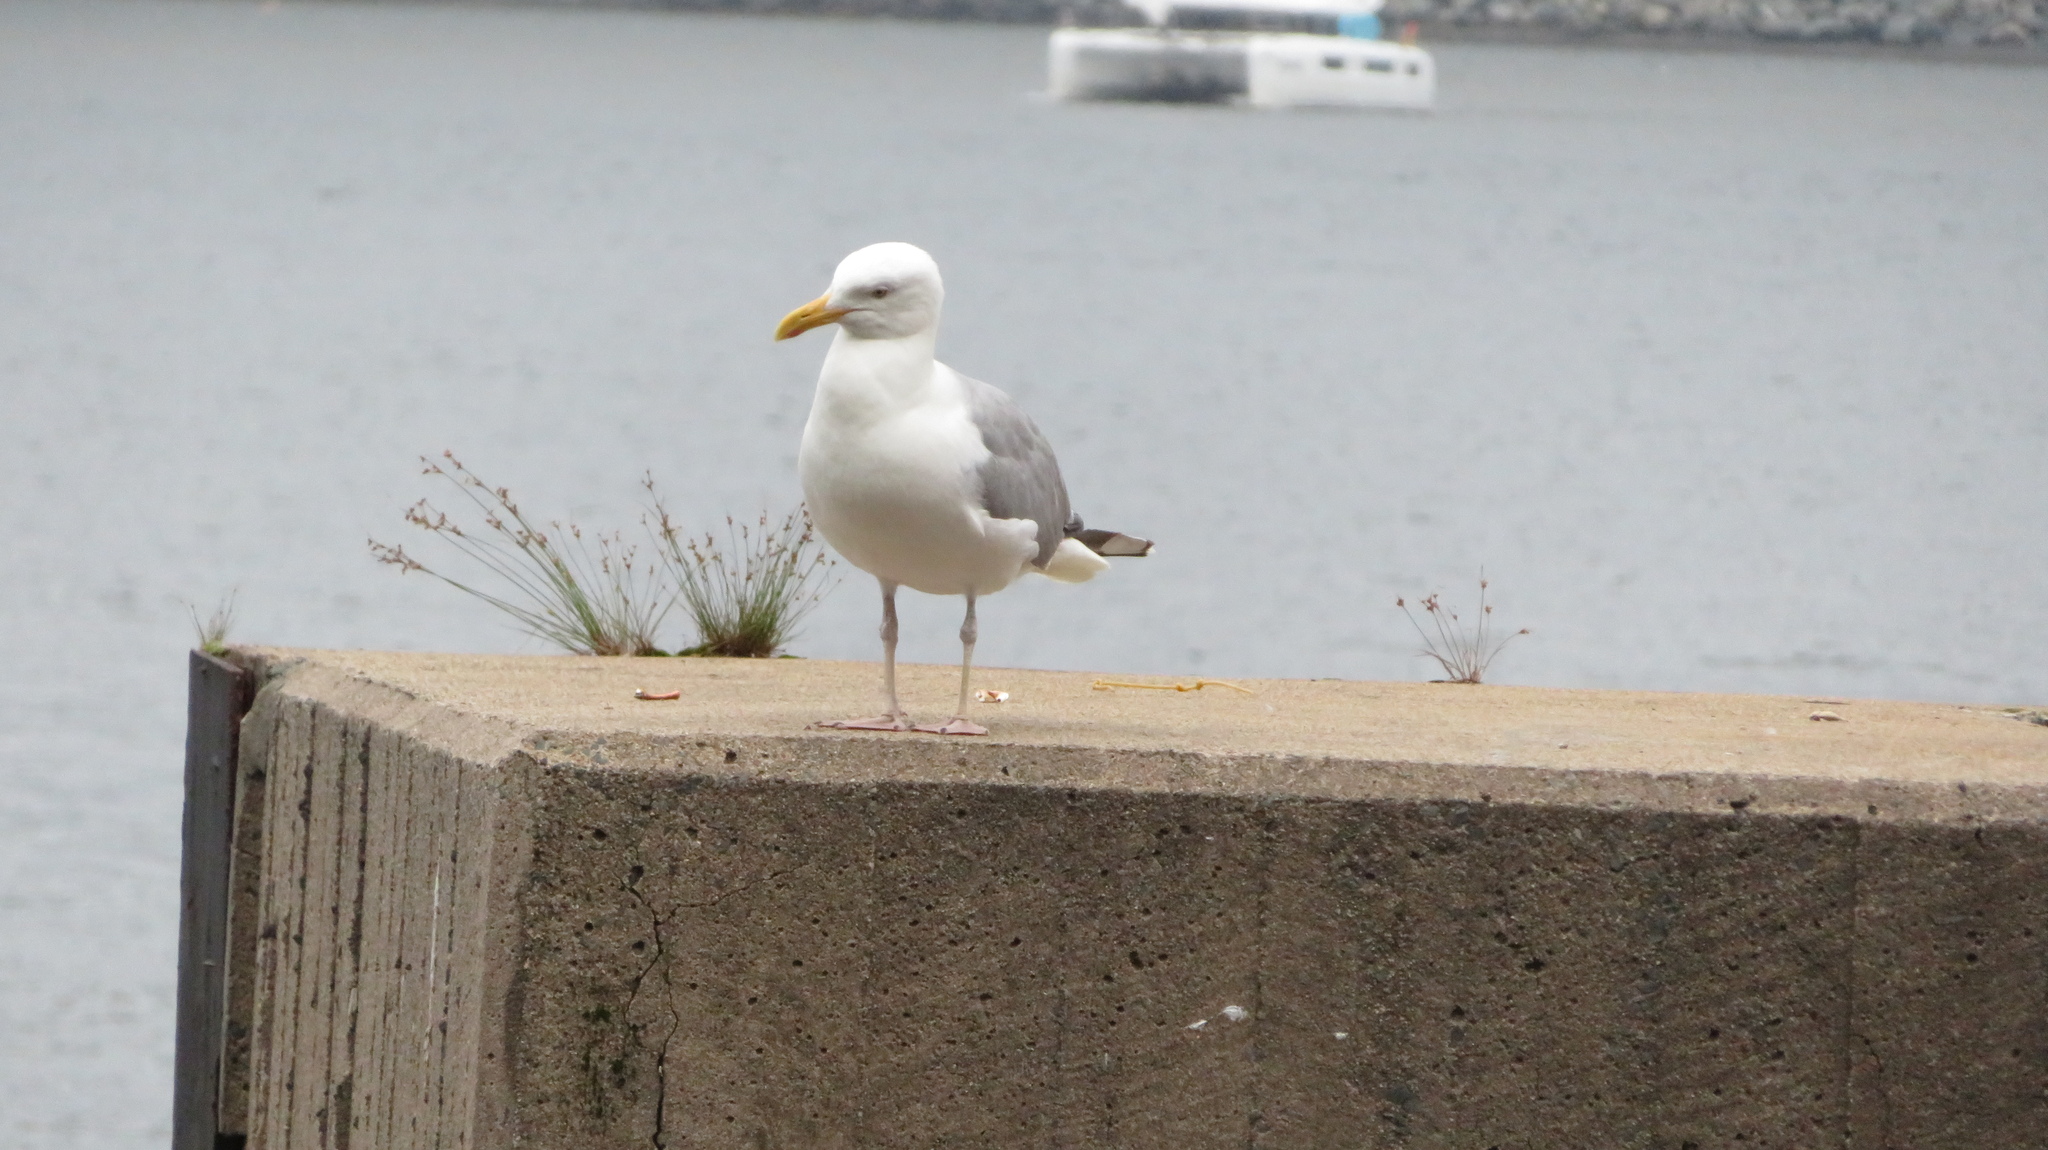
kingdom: Animalia
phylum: Chordata
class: Aves
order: Charadriiformes
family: Laridae
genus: Larus
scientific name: Larus argentatus
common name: Herring gull
